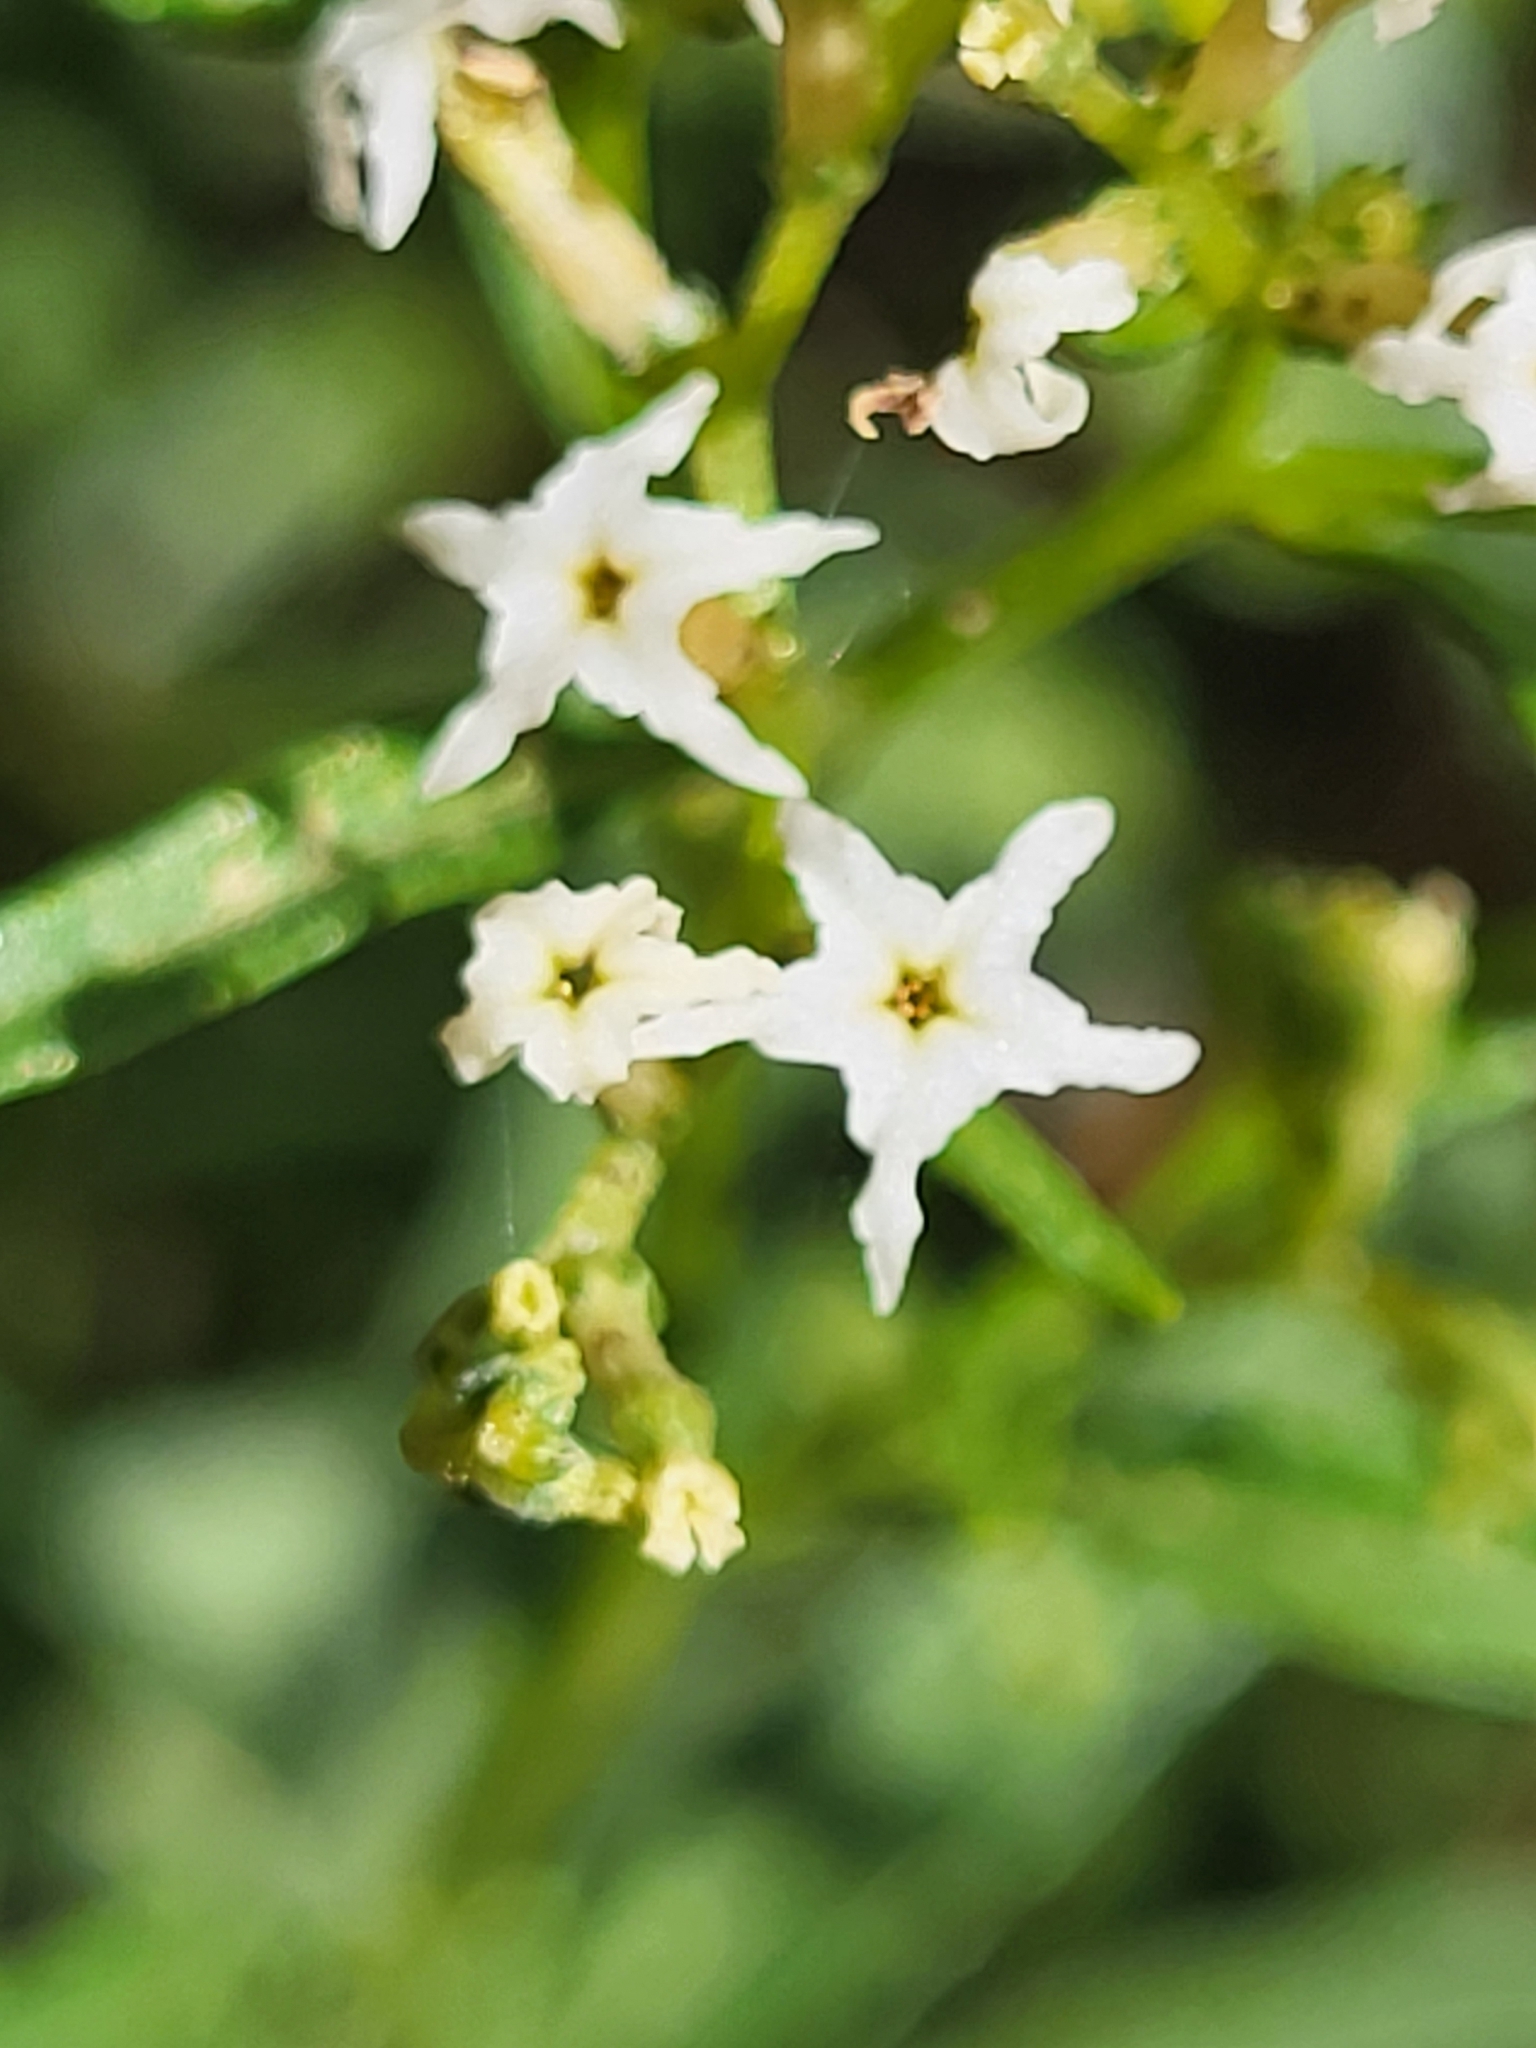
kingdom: Plantae
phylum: Tracheophyta
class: Magnoliopsida
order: Boraginales
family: Heliotropiaceae
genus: Heliotropium
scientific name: Heliotropium messerschmidioides
